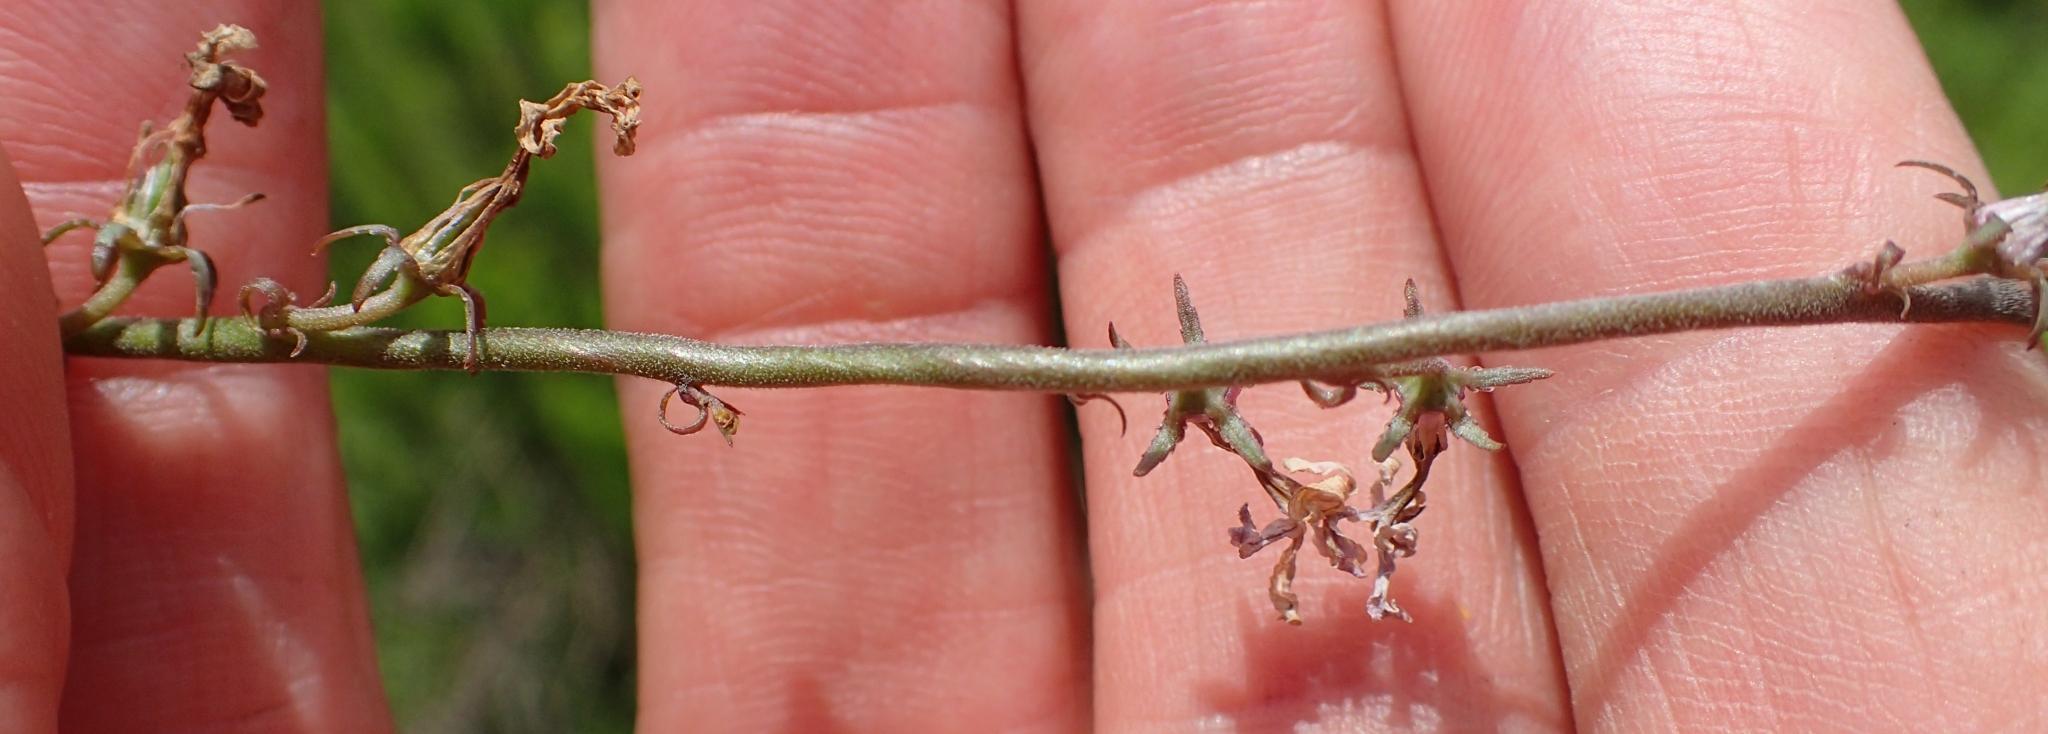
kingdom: Plantae
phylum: Tracheophyta
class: Magnoliopsida
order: Asterales
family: Campanulaceae
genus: Cyphia
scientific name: Cyphia tysonii
